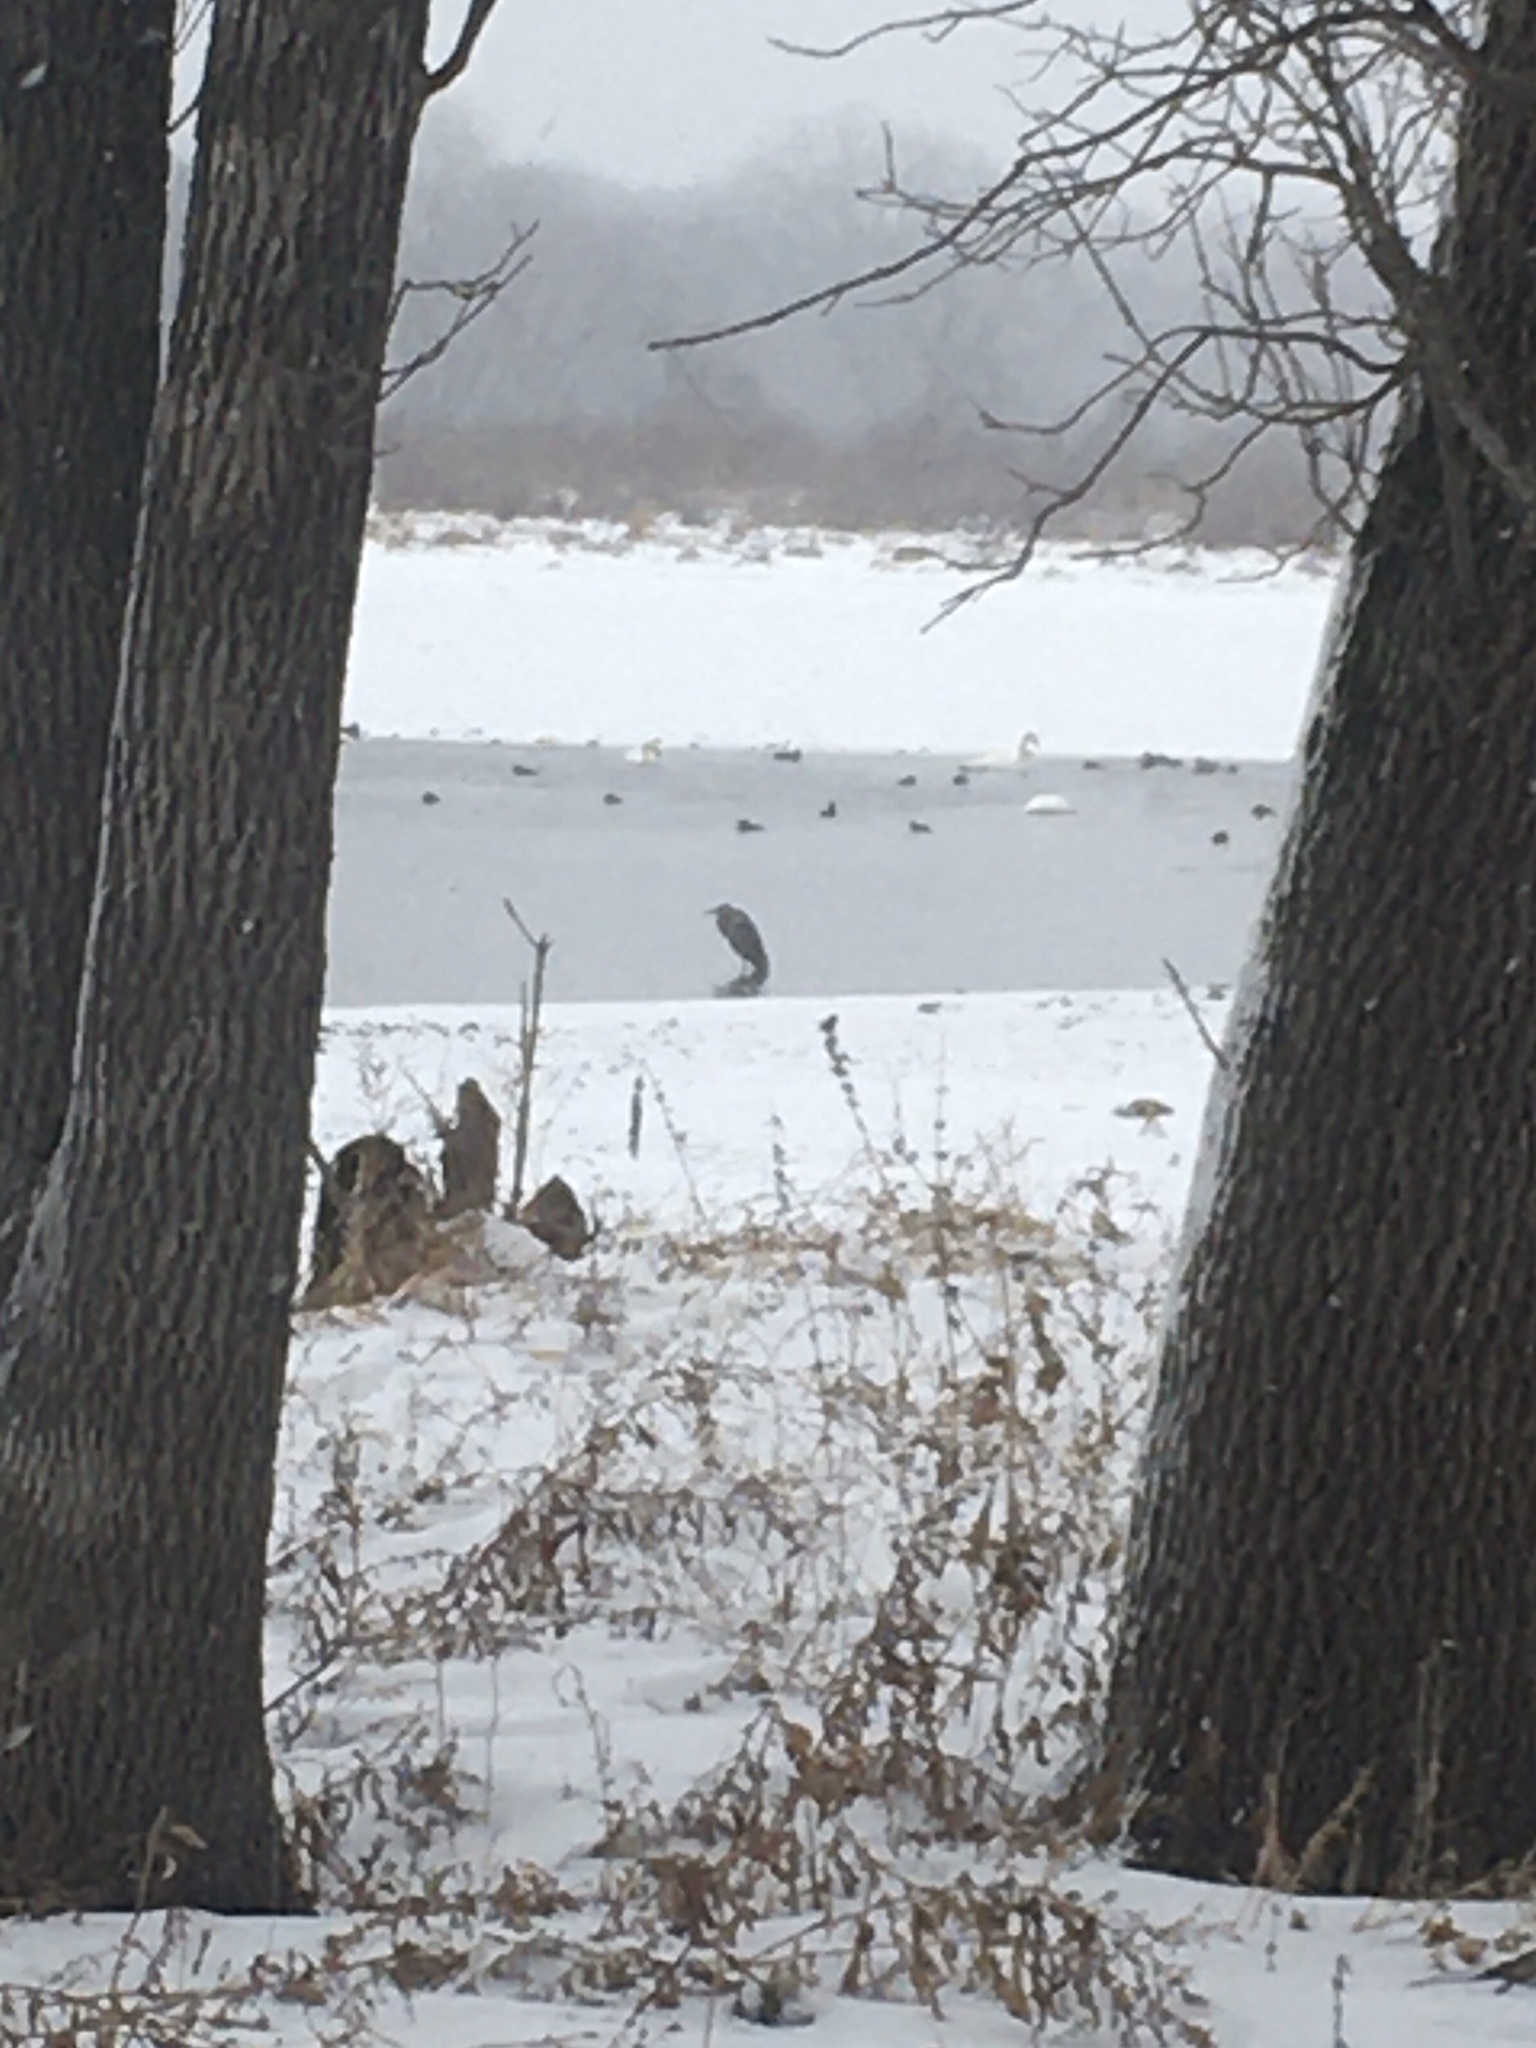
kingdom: Animalia
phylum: Chordata
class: Aves
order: Pelecaniformes
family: Ardeidae
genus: Ardea
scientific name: Ardea herodias
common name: Great blue heron
